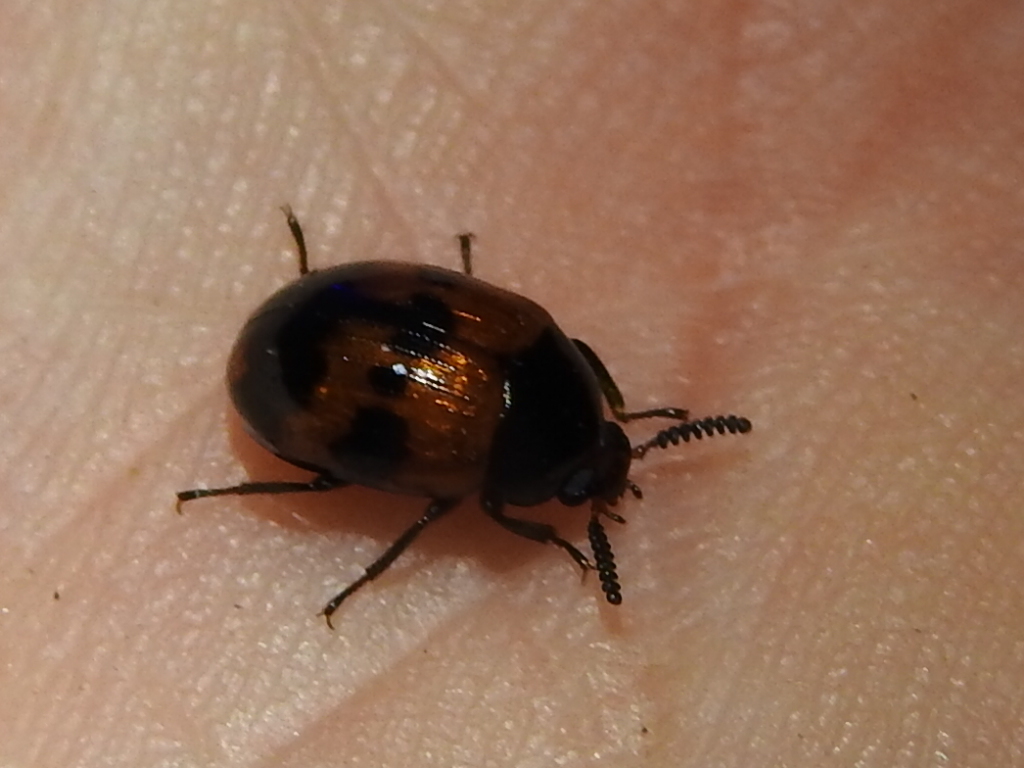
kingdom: Animalia
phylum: Arthropoda
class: Insecta
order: Coleoptera
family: Tenebrionidae
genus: Diaperis
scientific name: Diaperis nigronotata
